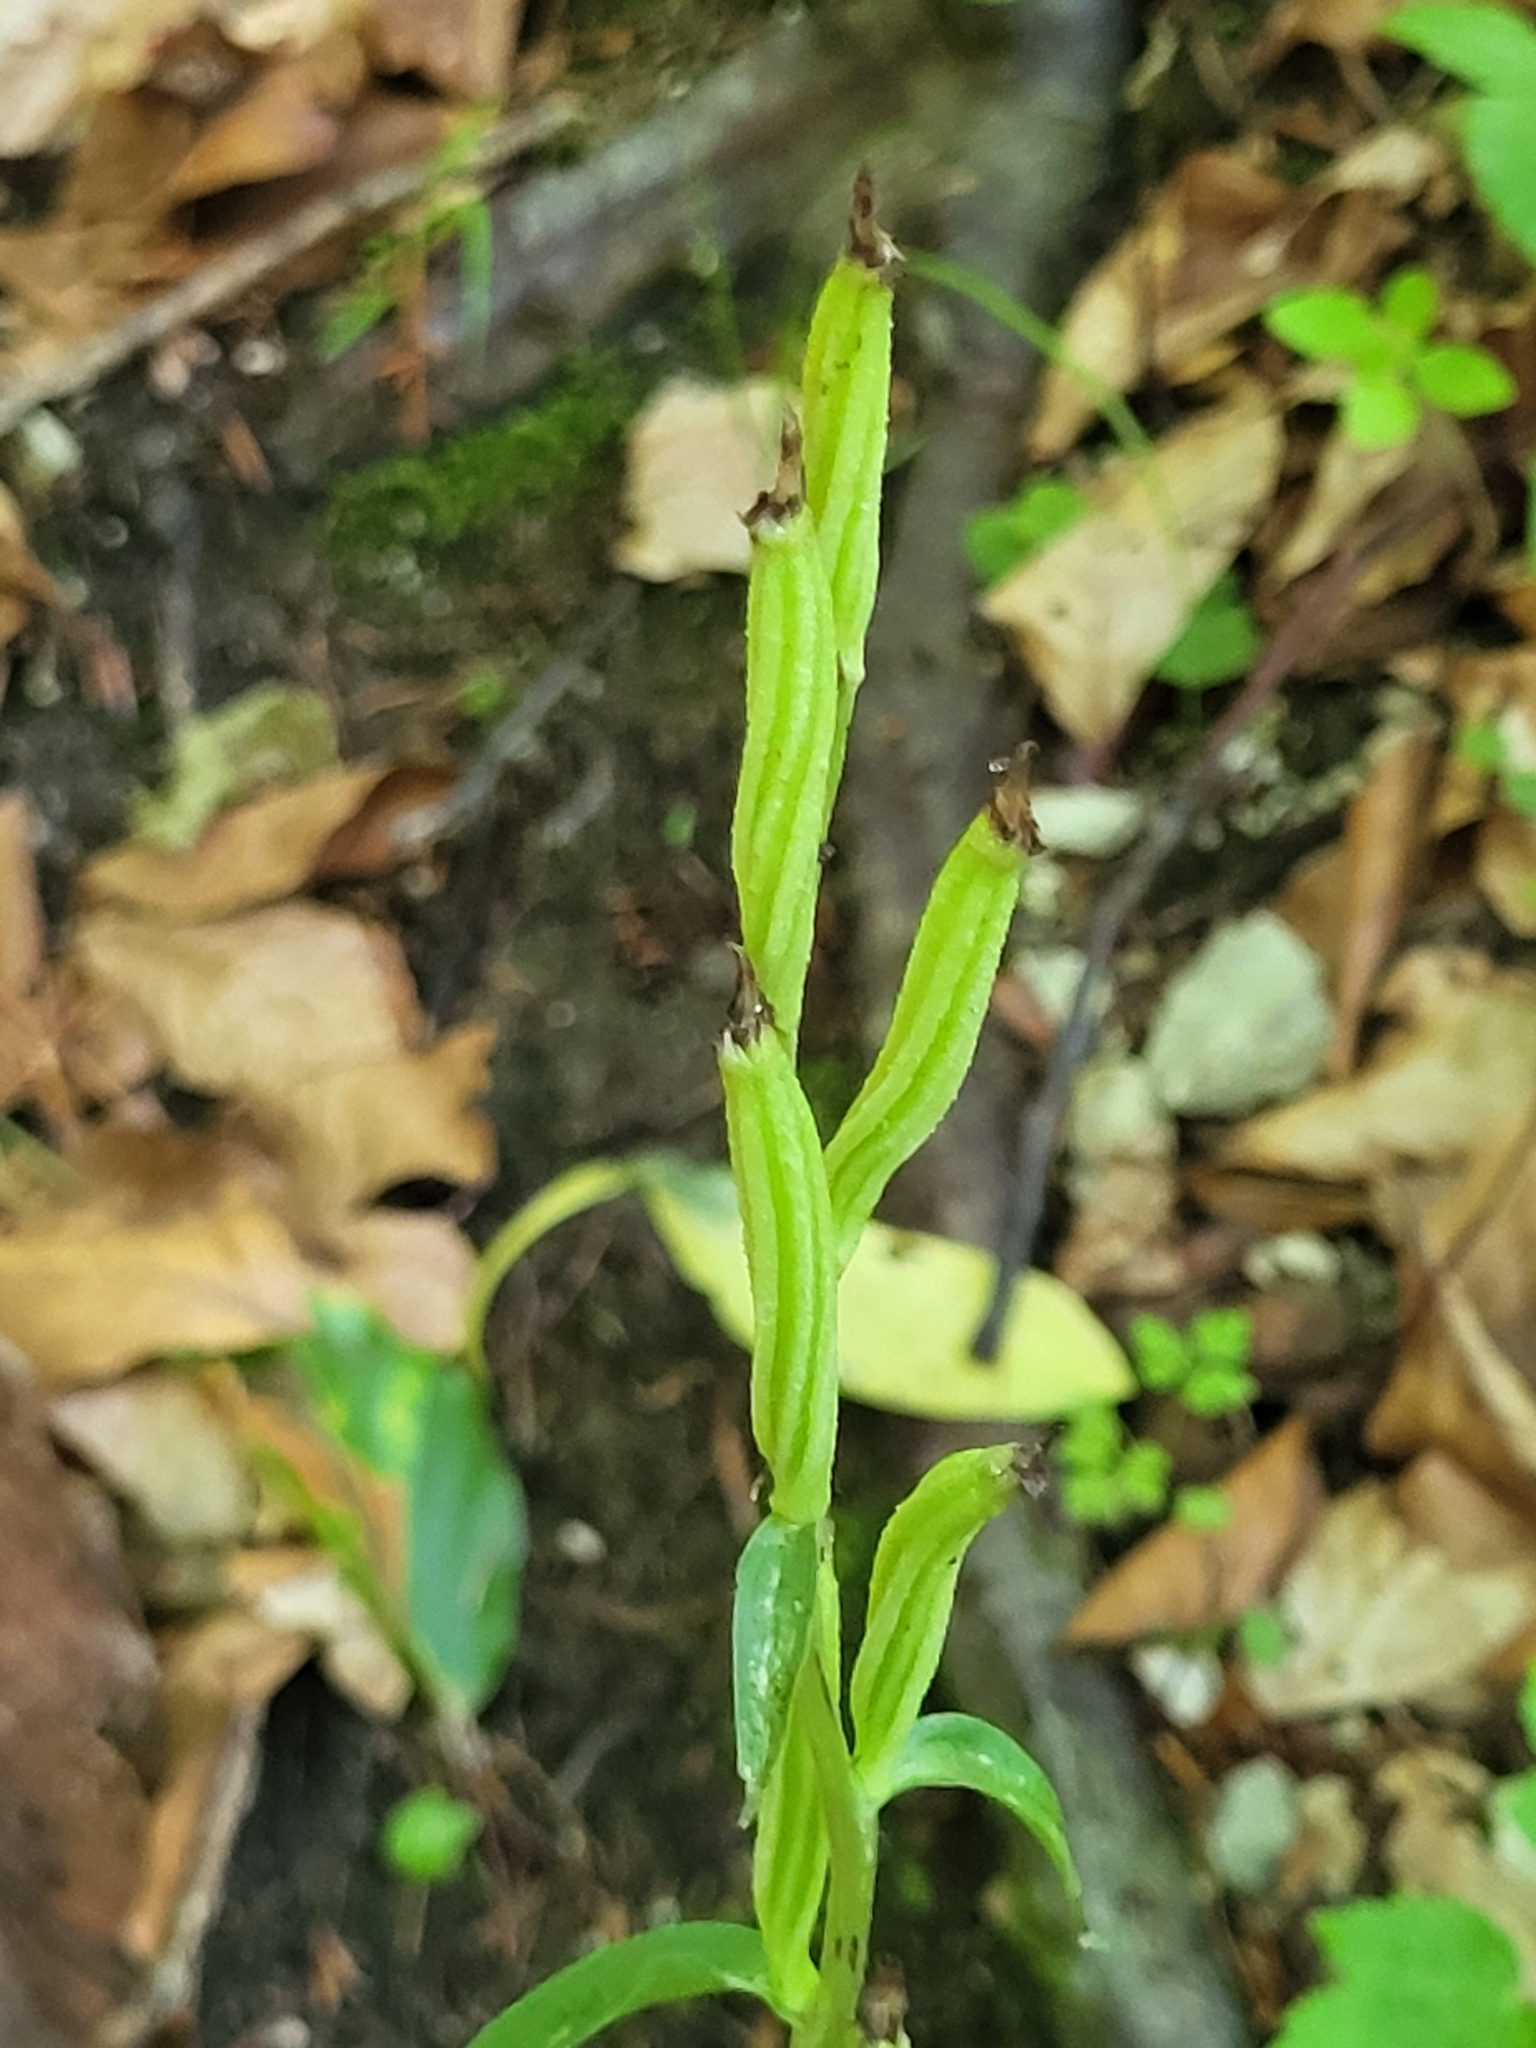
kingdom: Plantae
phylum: Tracheophyta
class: Liliopsida
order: Asparagales
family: Orchidaceae
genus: Cephalanthera
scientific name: Cephalanthera damasonium
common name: White helleborine
